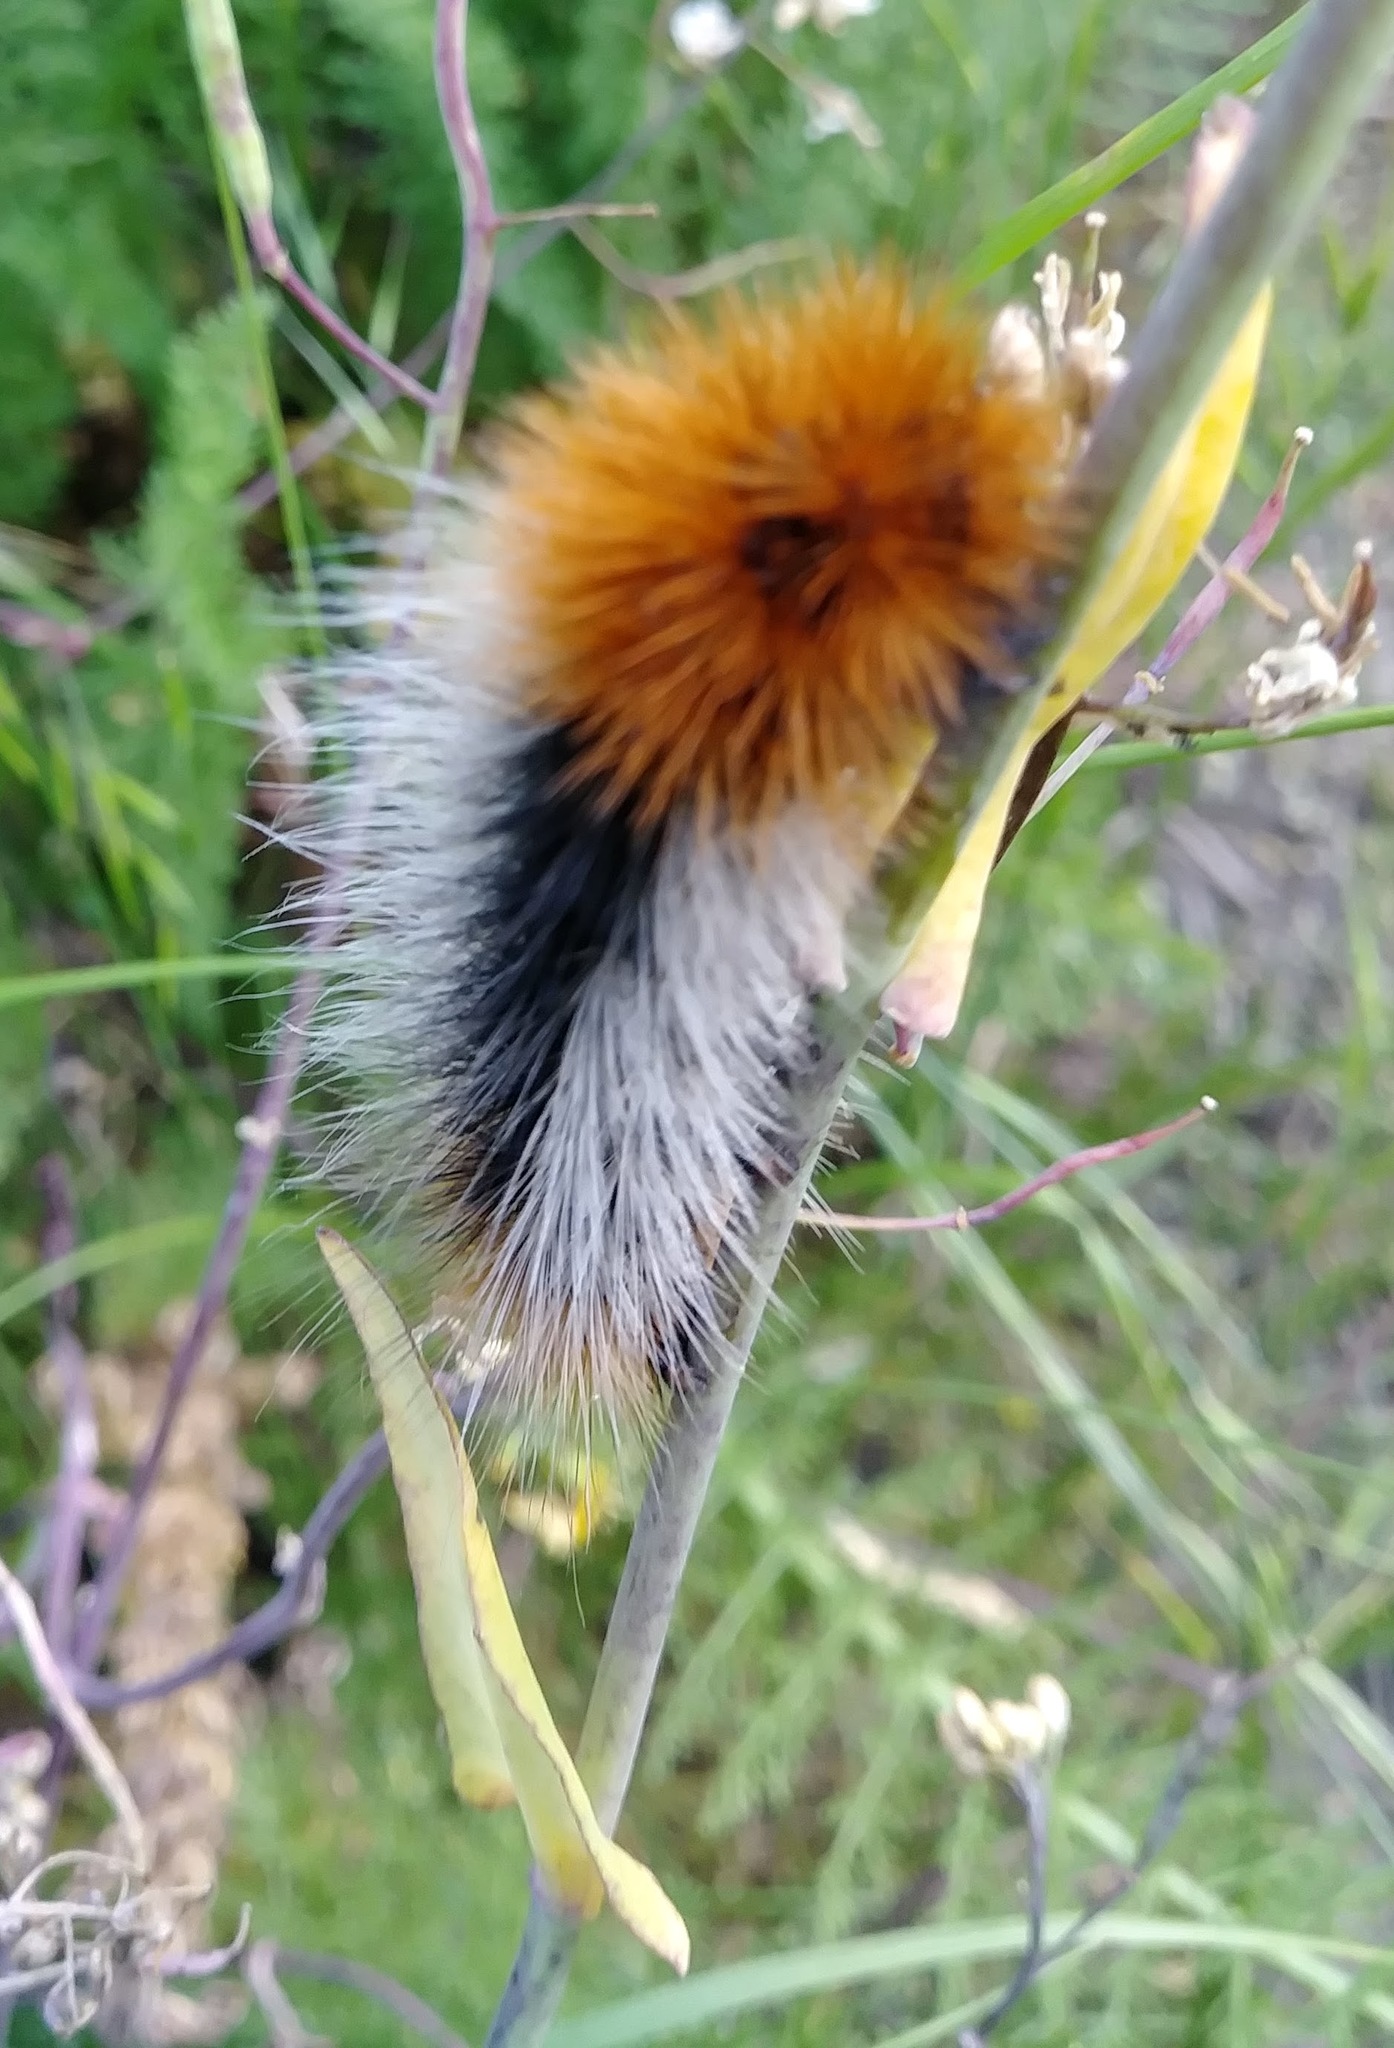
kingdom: Animalia
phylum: Arthropoda
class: Insecta
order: Lepidoptera
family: Erebidae
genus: Arctia
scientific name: Arctia tigrina
